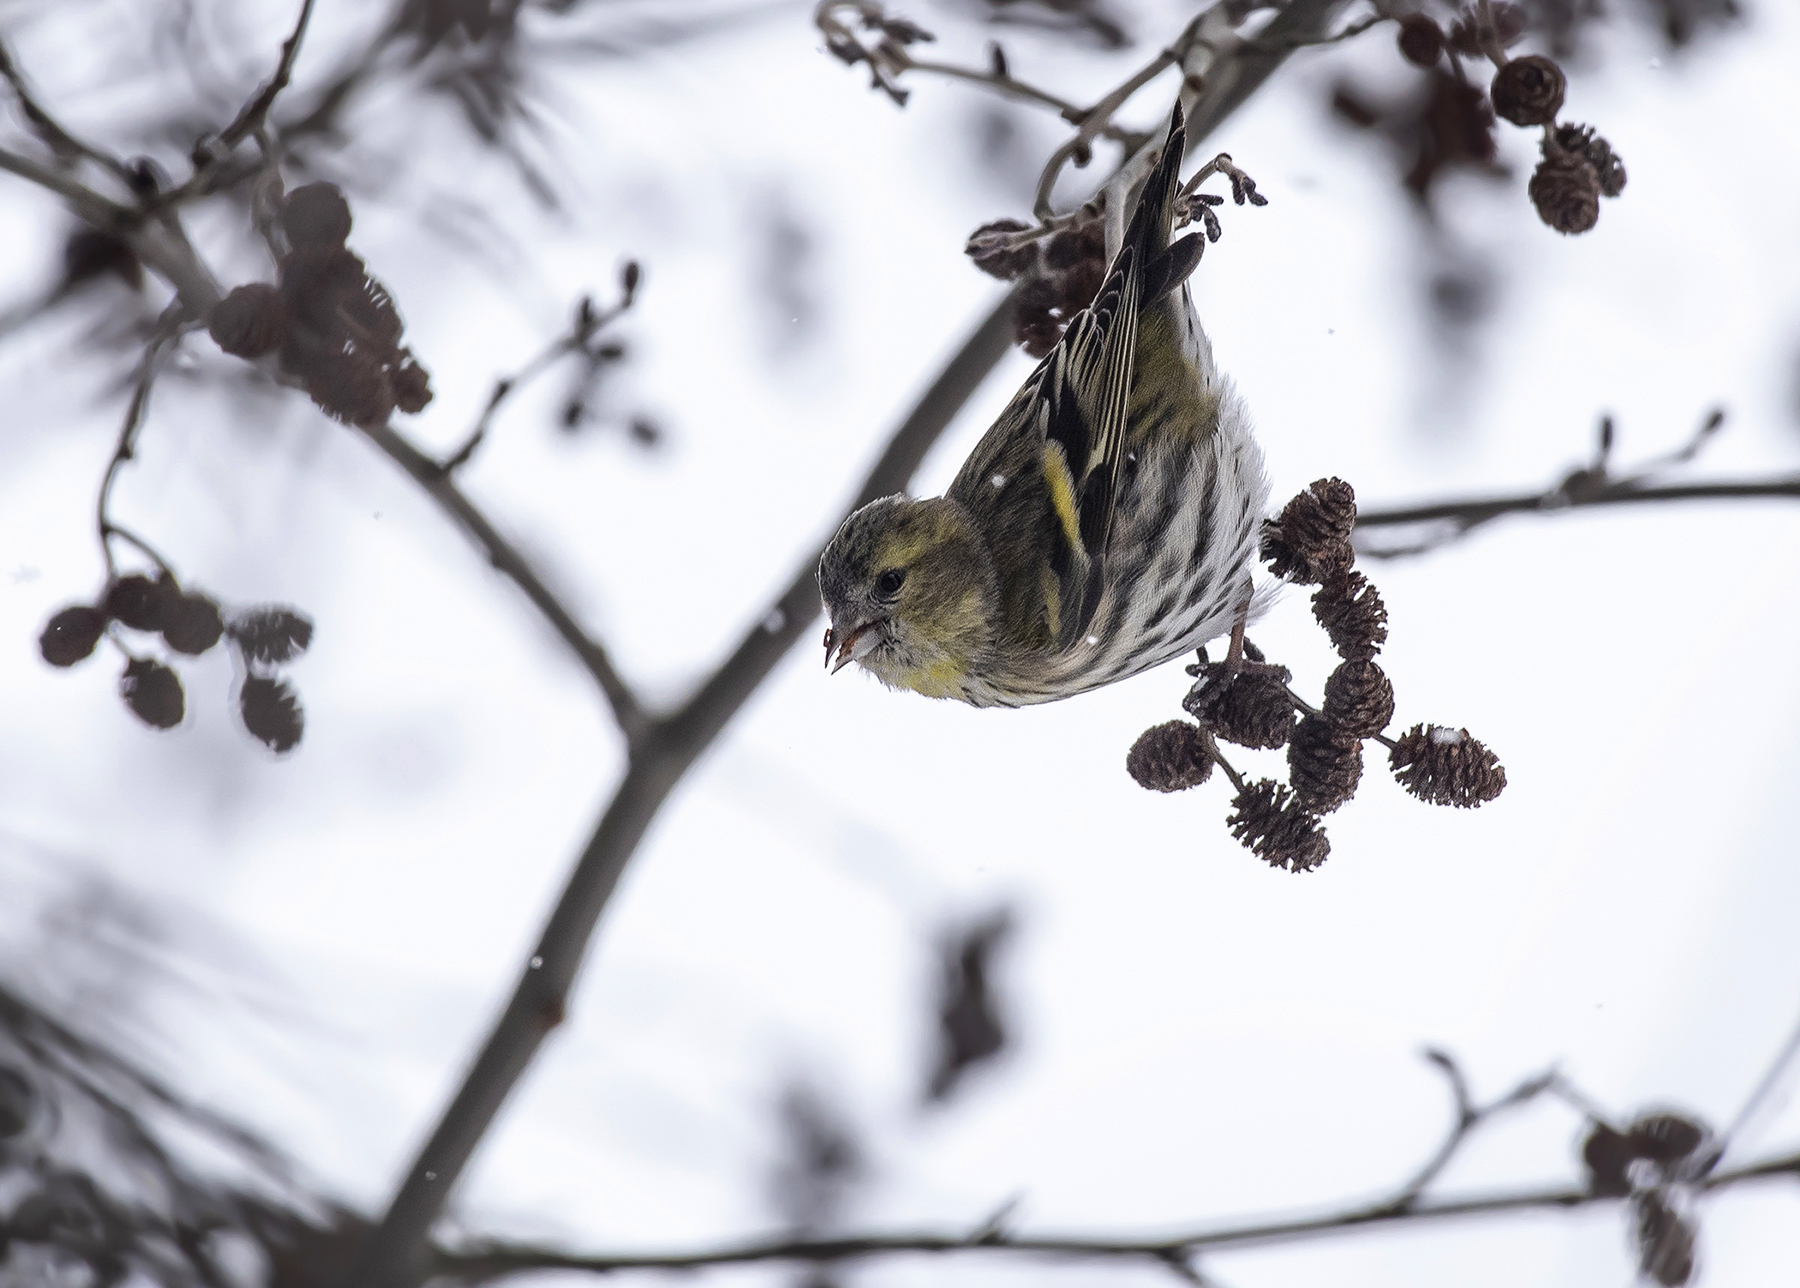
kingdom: Animalia
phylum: Chordata
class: Aves
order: Passeriformes
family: Fringillidae
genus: Spinus
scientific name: Spinus spinus
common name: Eurasian siskin
